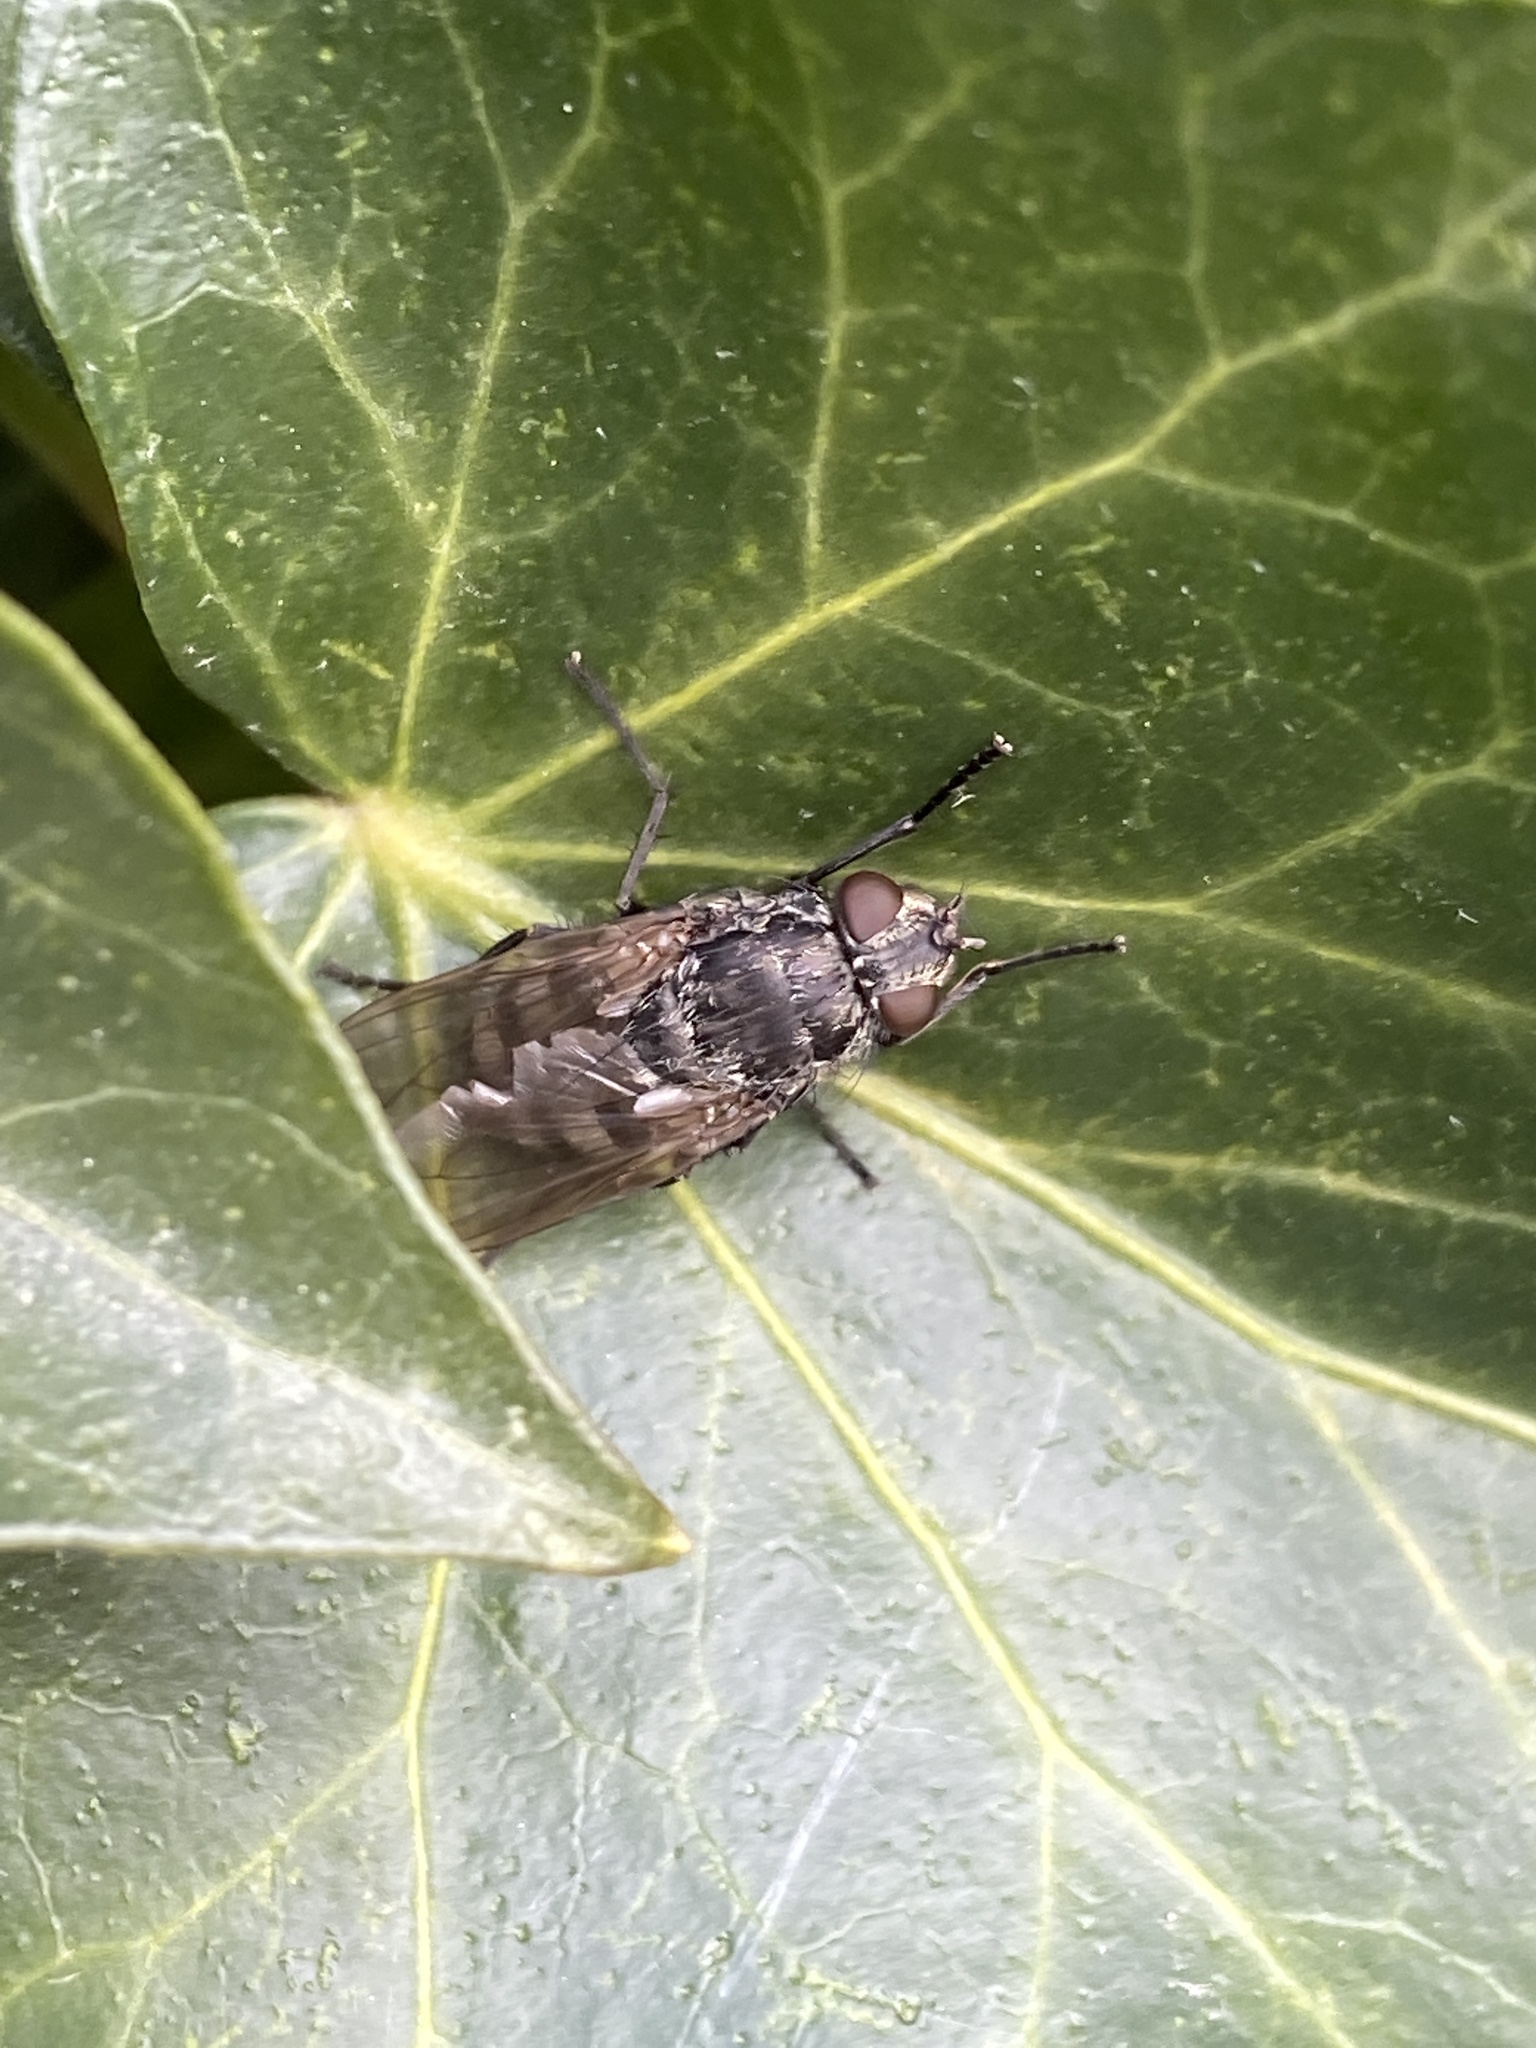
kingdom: Animalia
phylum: Arthropoda
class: Insecta
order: Diptera
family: Polleniidae
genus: Pollenia
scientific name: Pollenia vagabunda
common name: Vagabund cluster fly
